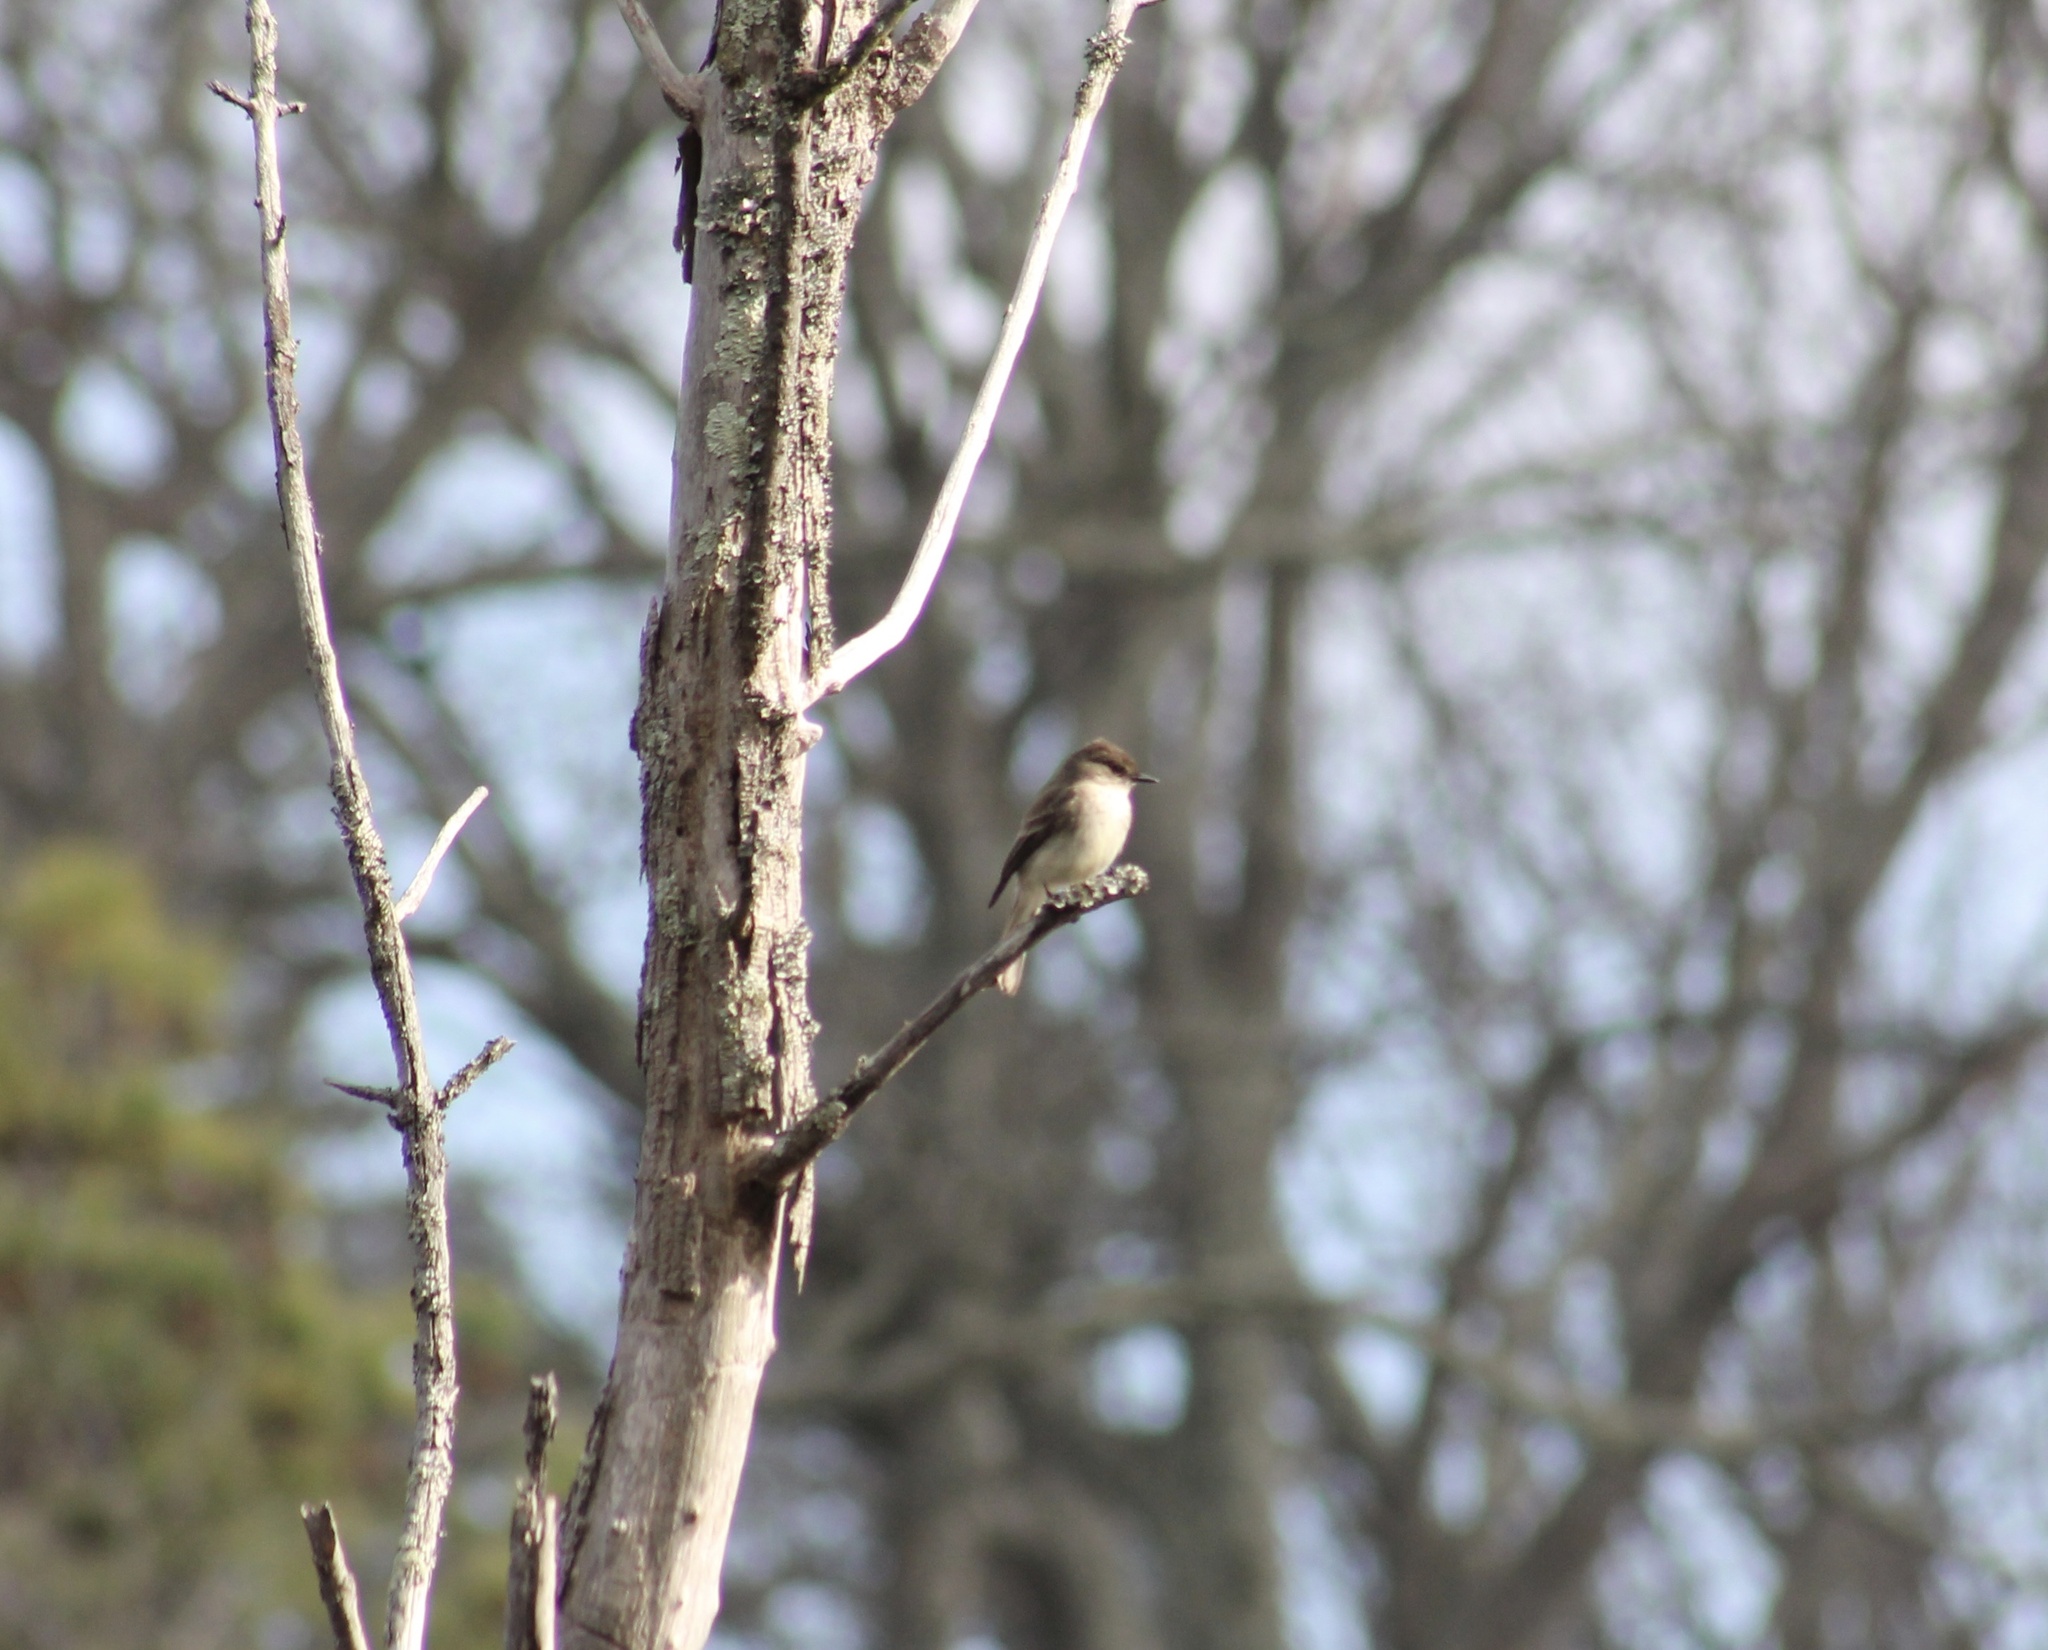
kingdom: Animalia
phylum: Chordata
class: Aves
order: Passeriformes
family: Tyrannidae
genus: Sayornis
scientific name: Sayornis phoebe
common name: Eastern phoebe
